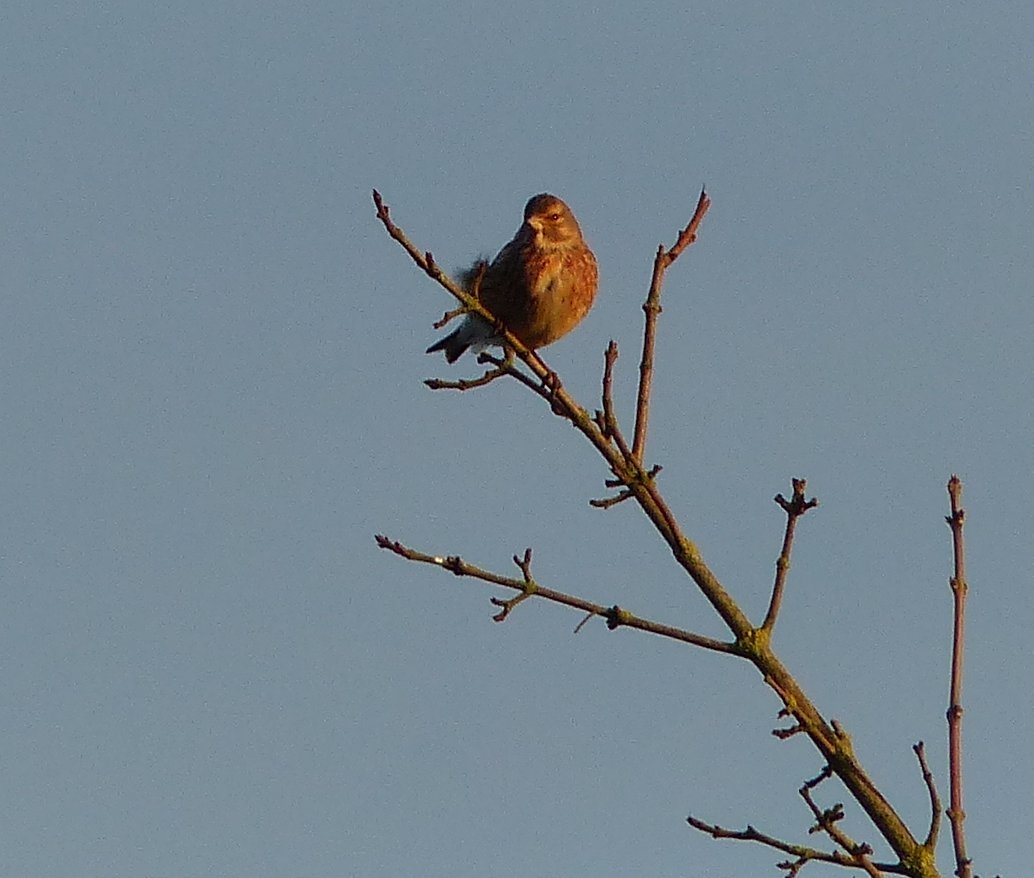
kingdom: Animalia
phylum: Chordata
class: Aves
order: Passeriformes
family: Fringillidae
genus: Linaria
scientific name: Linaria cannabina
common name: Common linnet
